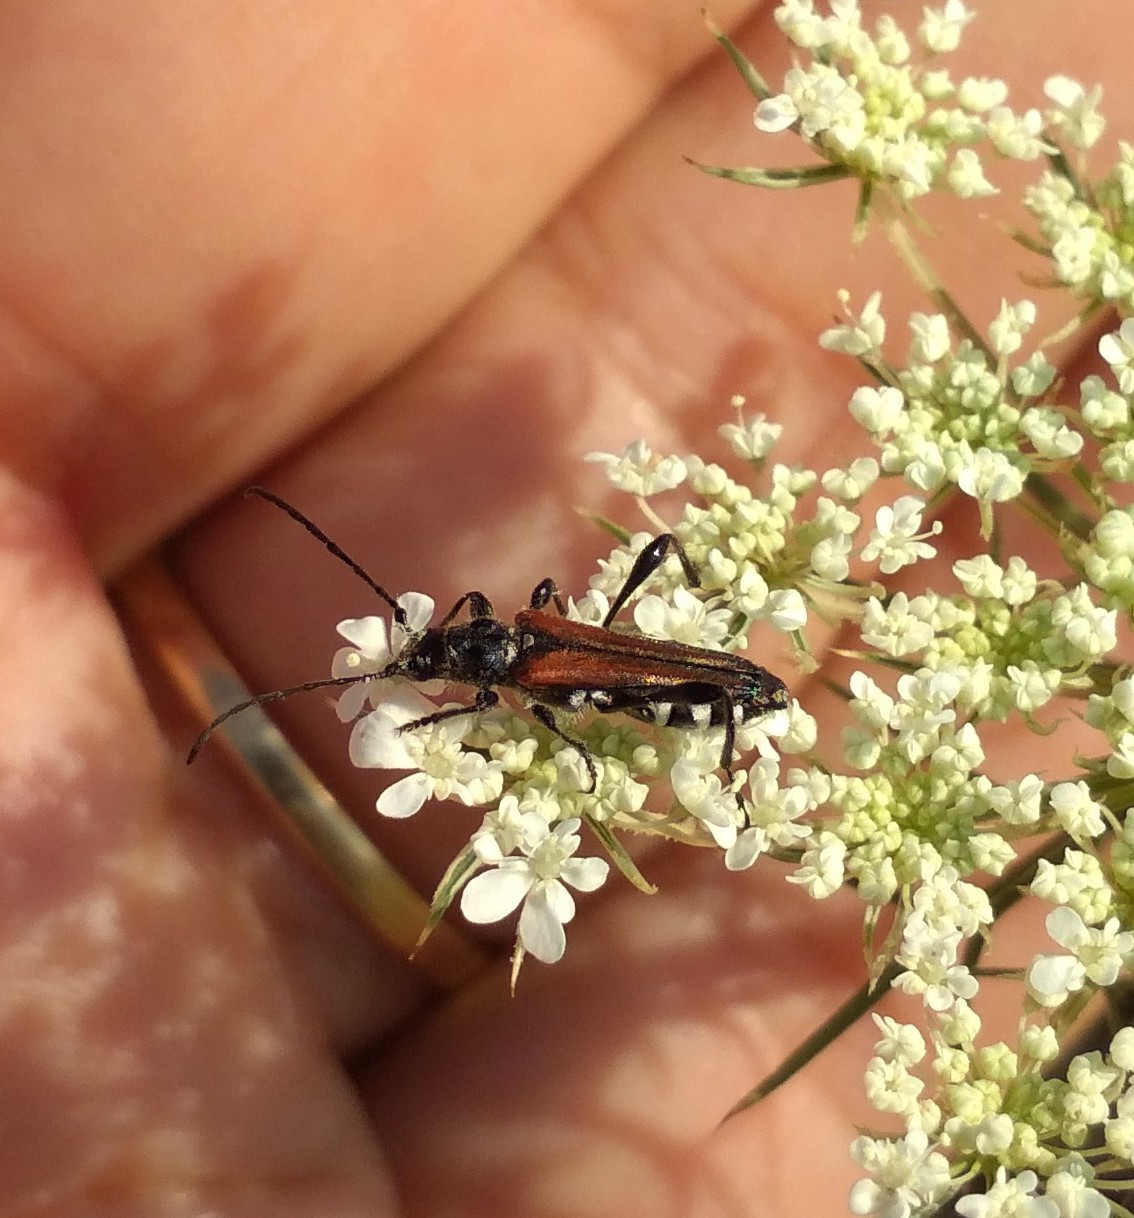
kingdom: Animalia
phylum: Arthropoda
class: Insecta
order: Coleoptera
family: Cerambycidae
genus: Stenopterus
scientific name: Stenopterus ater
